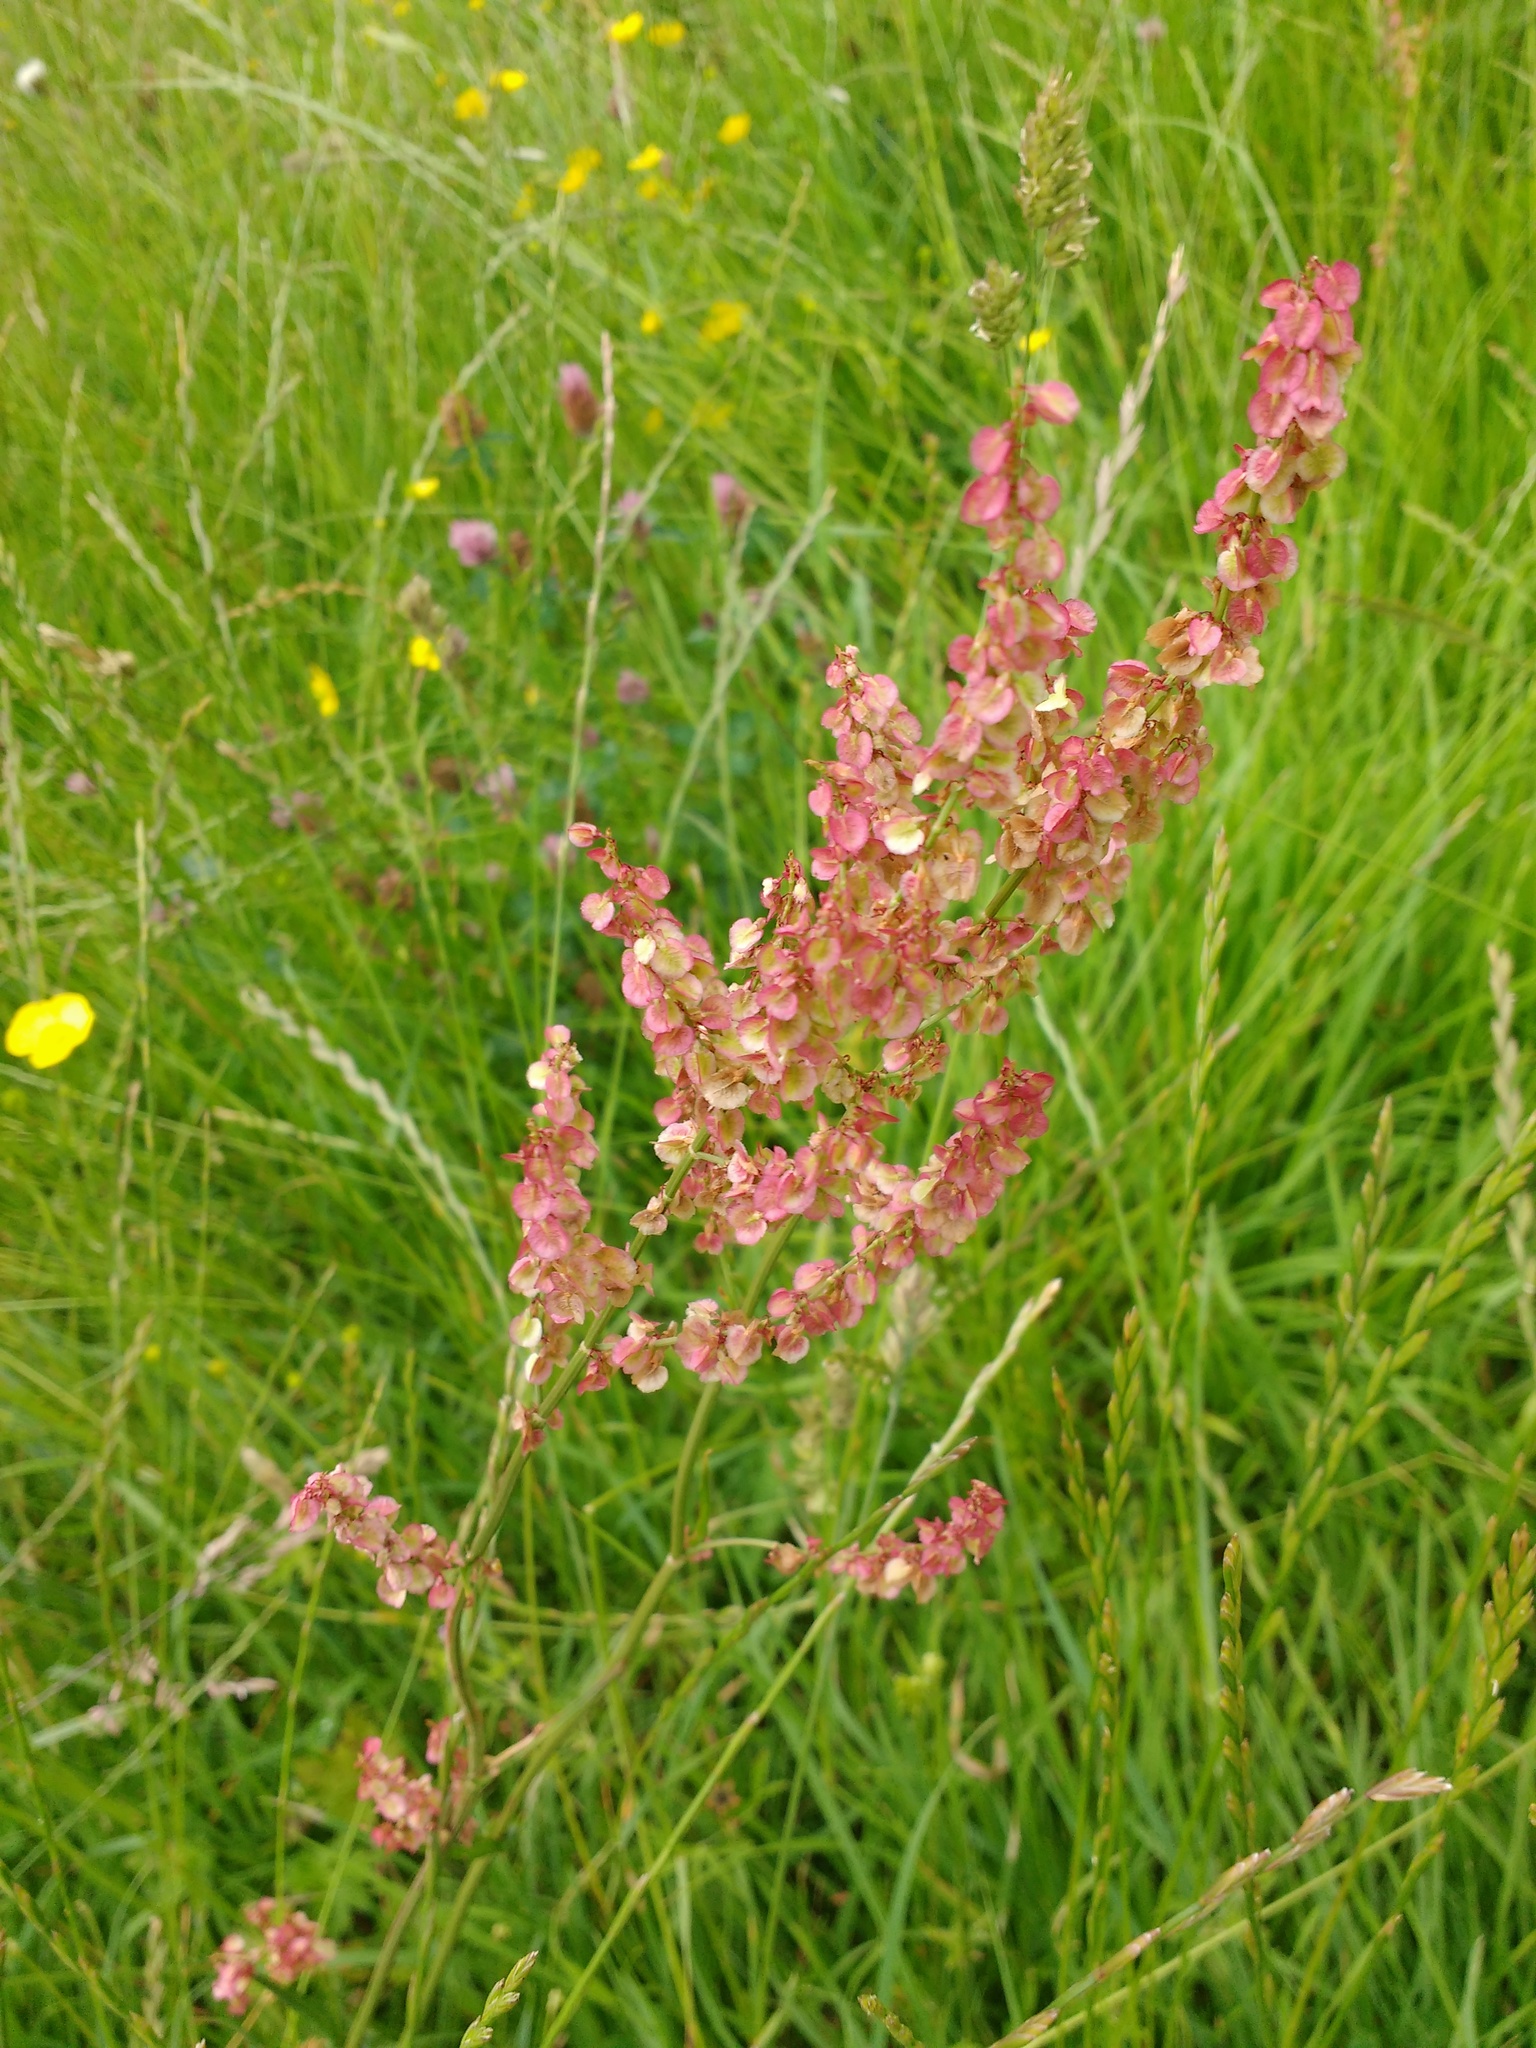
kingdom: Plantae
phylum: Tracheophyta
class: Magnoliopsida
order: Caryophyllales
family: Polygonaceae
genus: Rumex
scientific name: Rumex acetosa
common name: Garden sorrel
